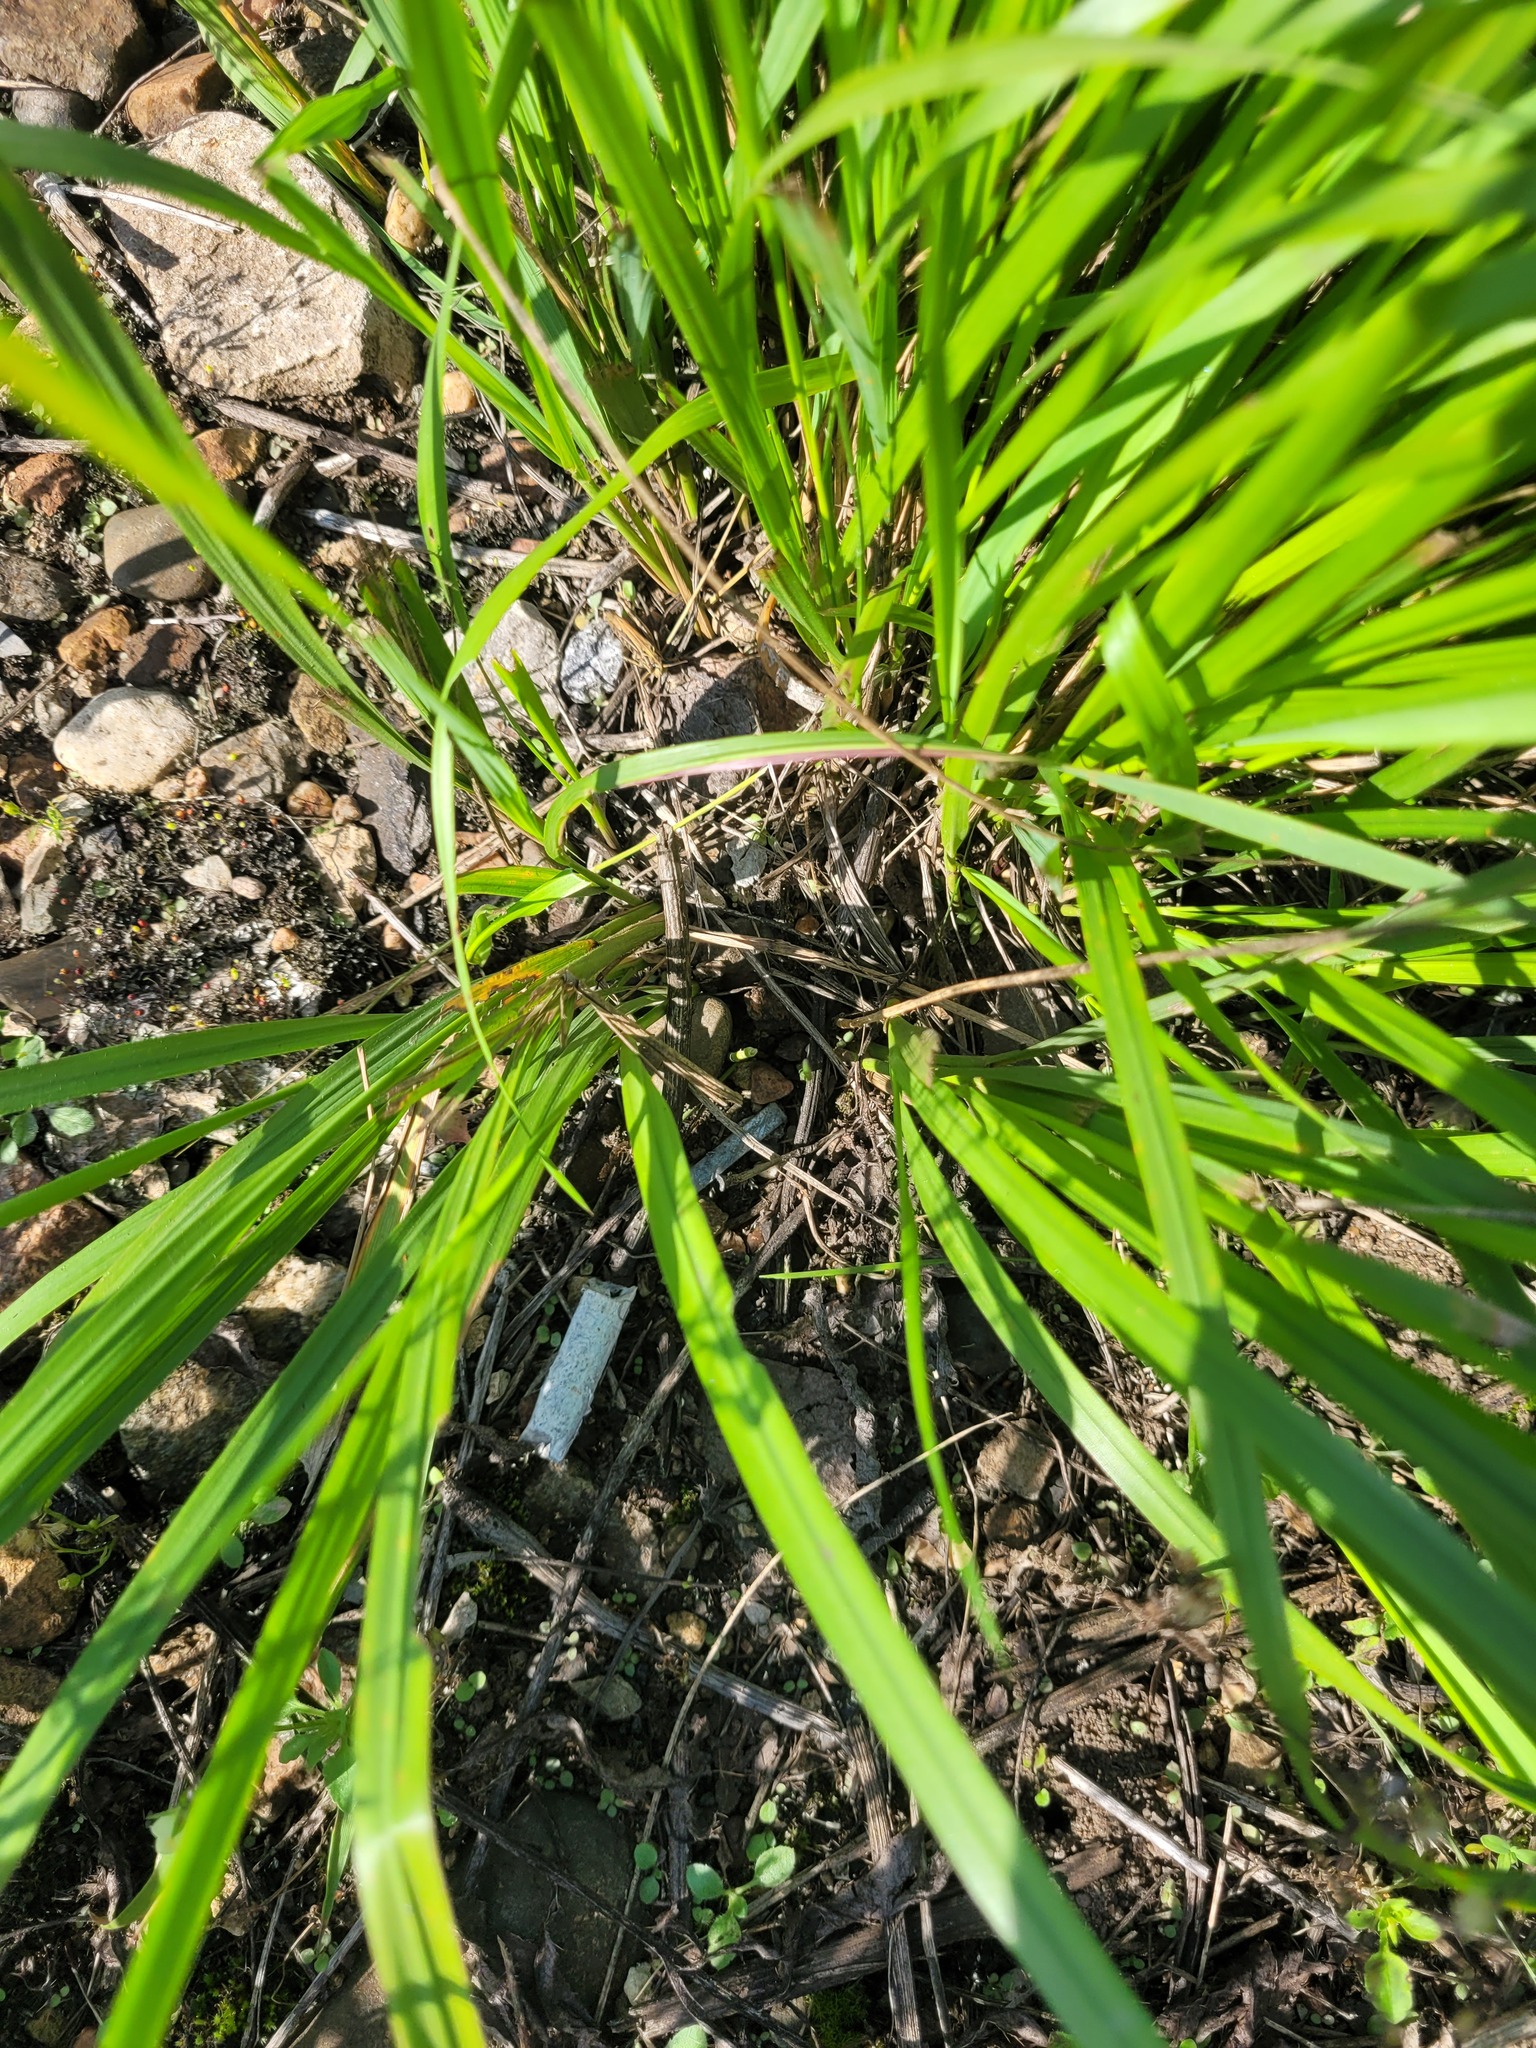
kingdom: Plantae
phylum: Tracheophyta
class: Liliopsida
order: Poales
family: Poaceae
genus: Calamagrostis
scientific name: Calamagrostis arundinacea
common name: Metskastik
